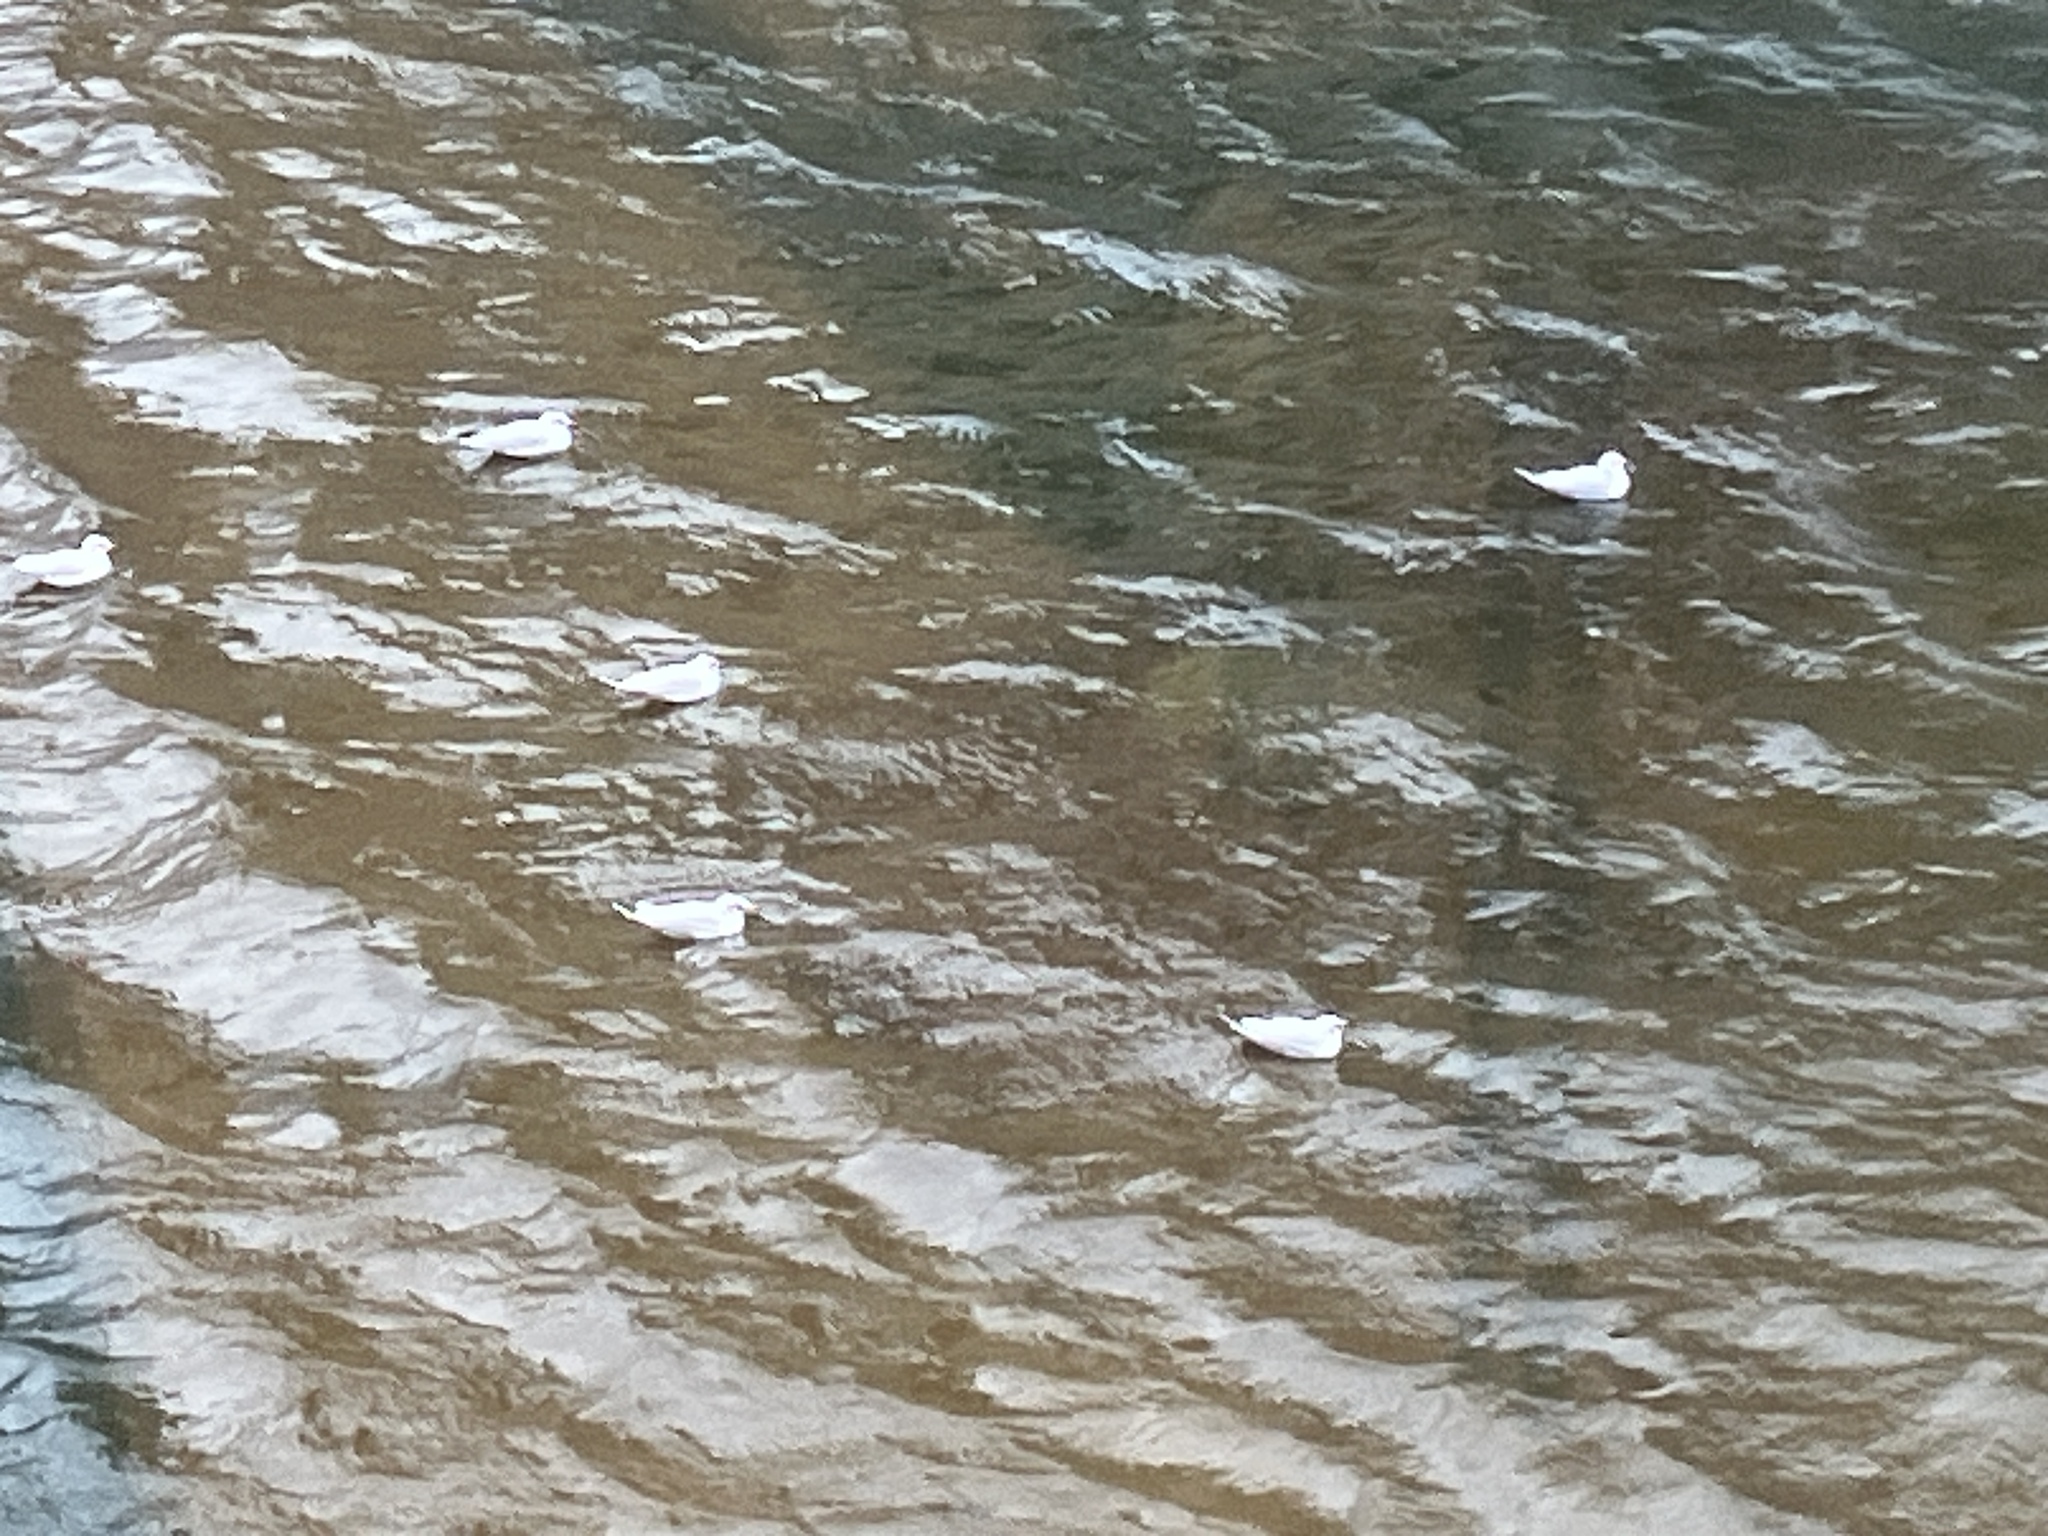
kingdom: Animalia
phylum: Chordata
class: Aves
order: Charadriiformes
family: Laridae
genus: Chroicocephalus
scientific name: Chroicocephalus ridibundus
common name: Black-headed gull
